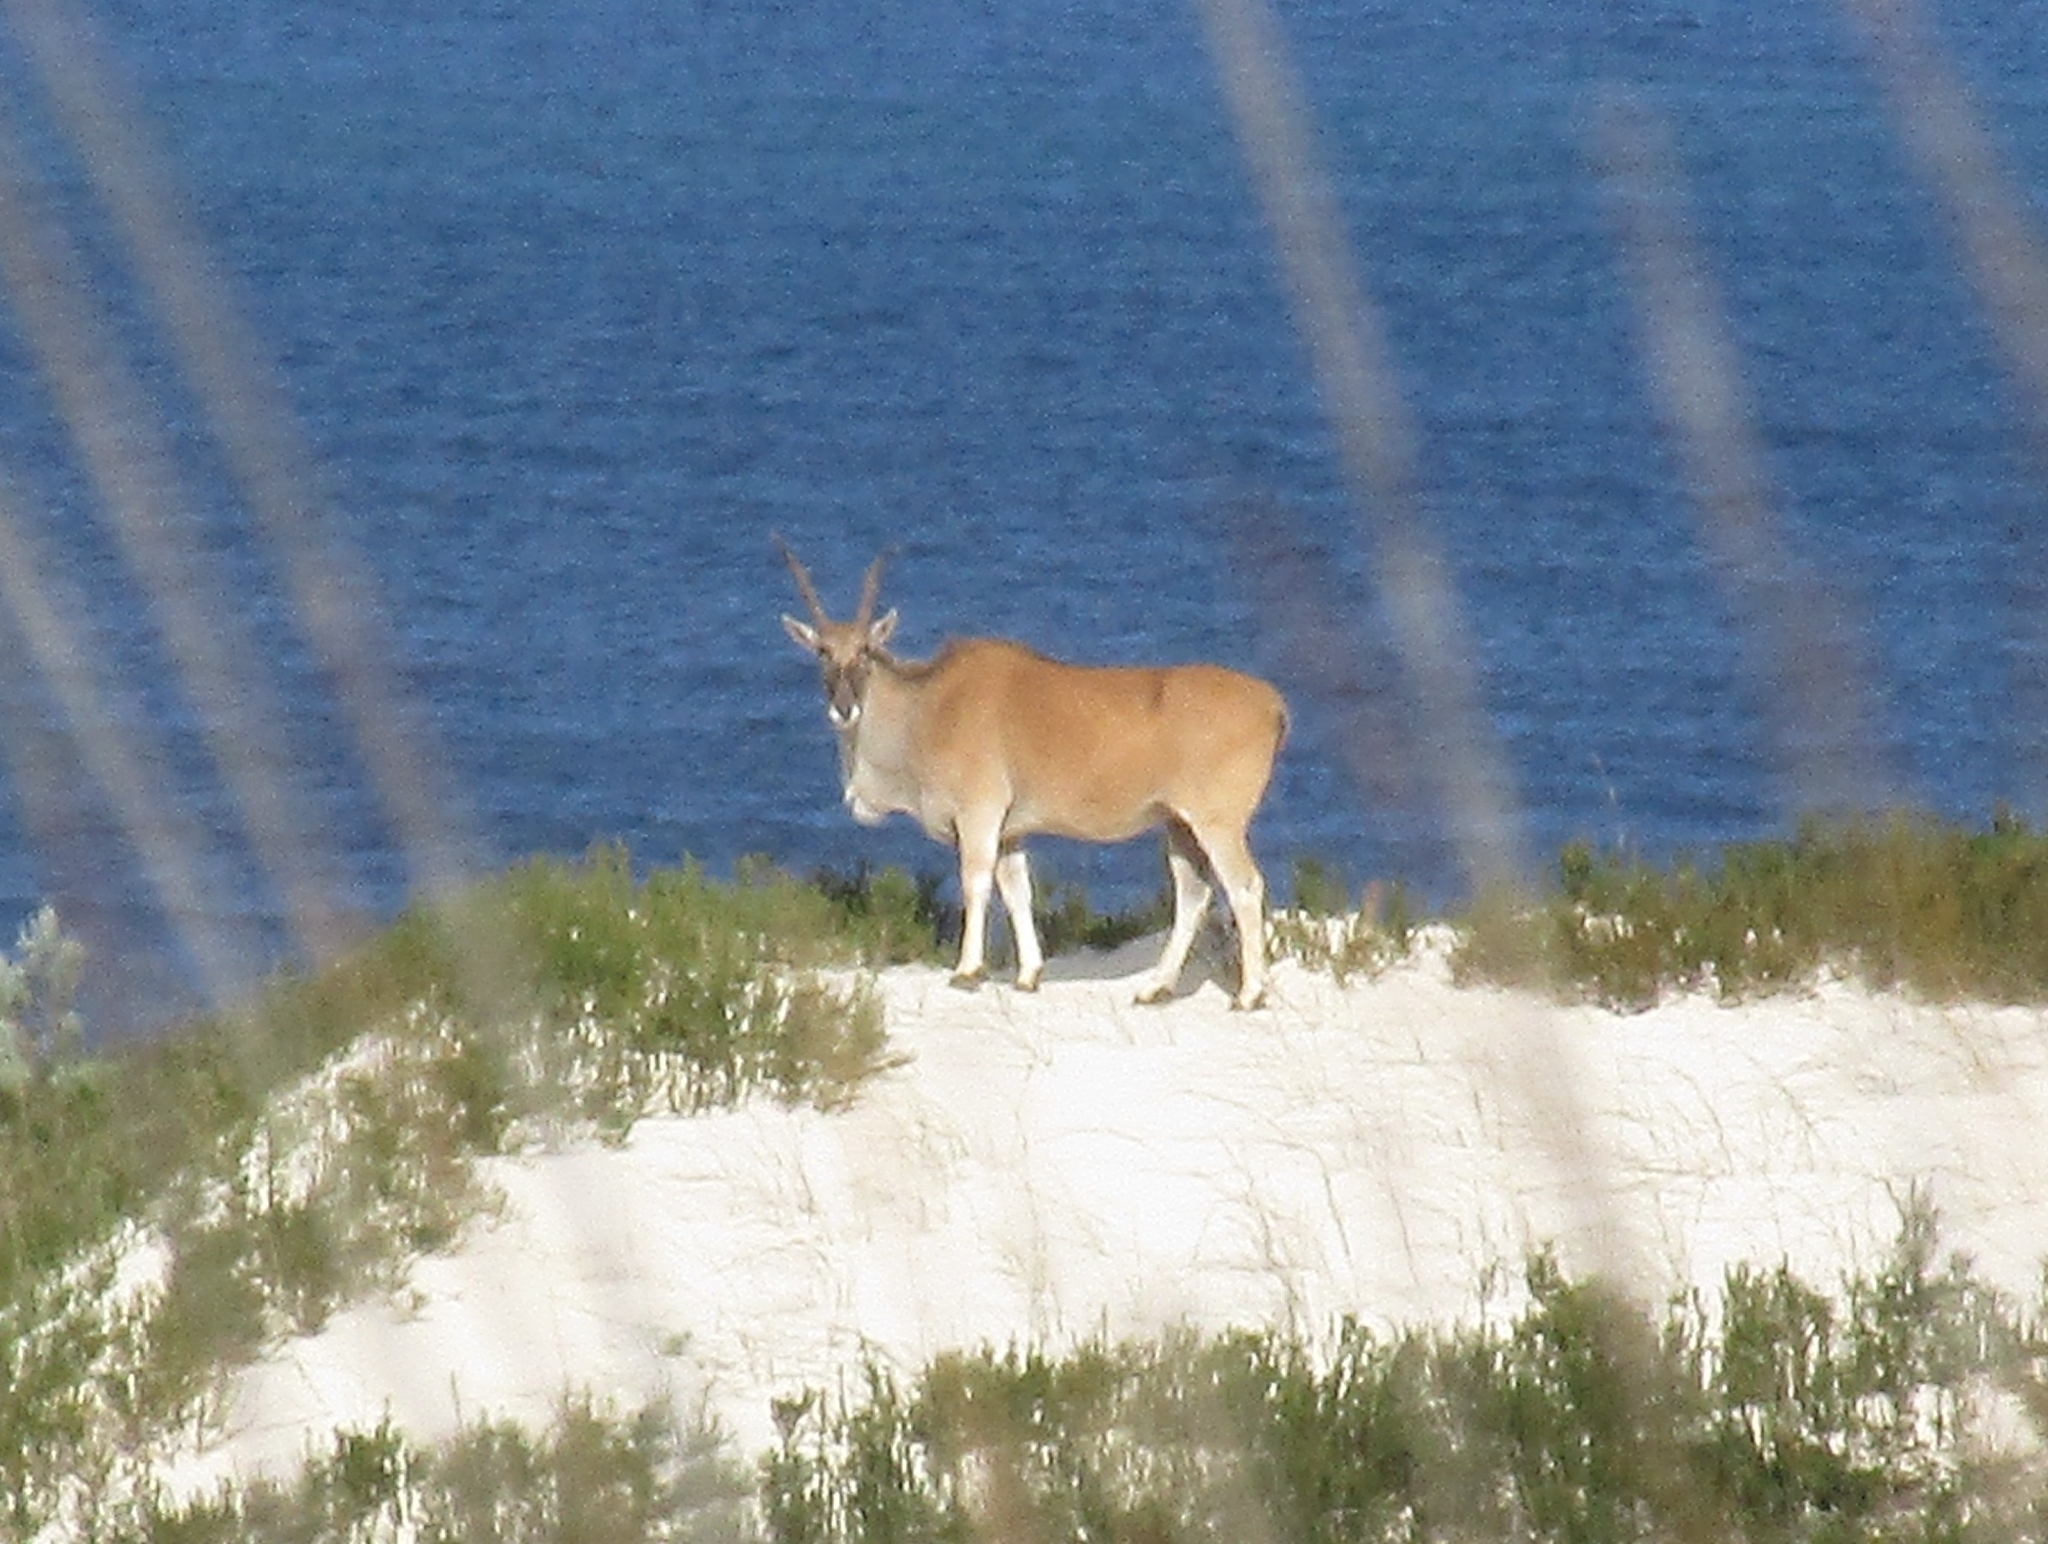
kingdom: Animalia
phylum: Chordata
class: Mammalia
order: Artiodactyla
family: Bovidae
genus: Taurotragus
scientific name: Taurotragus oryx
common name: Common eland
